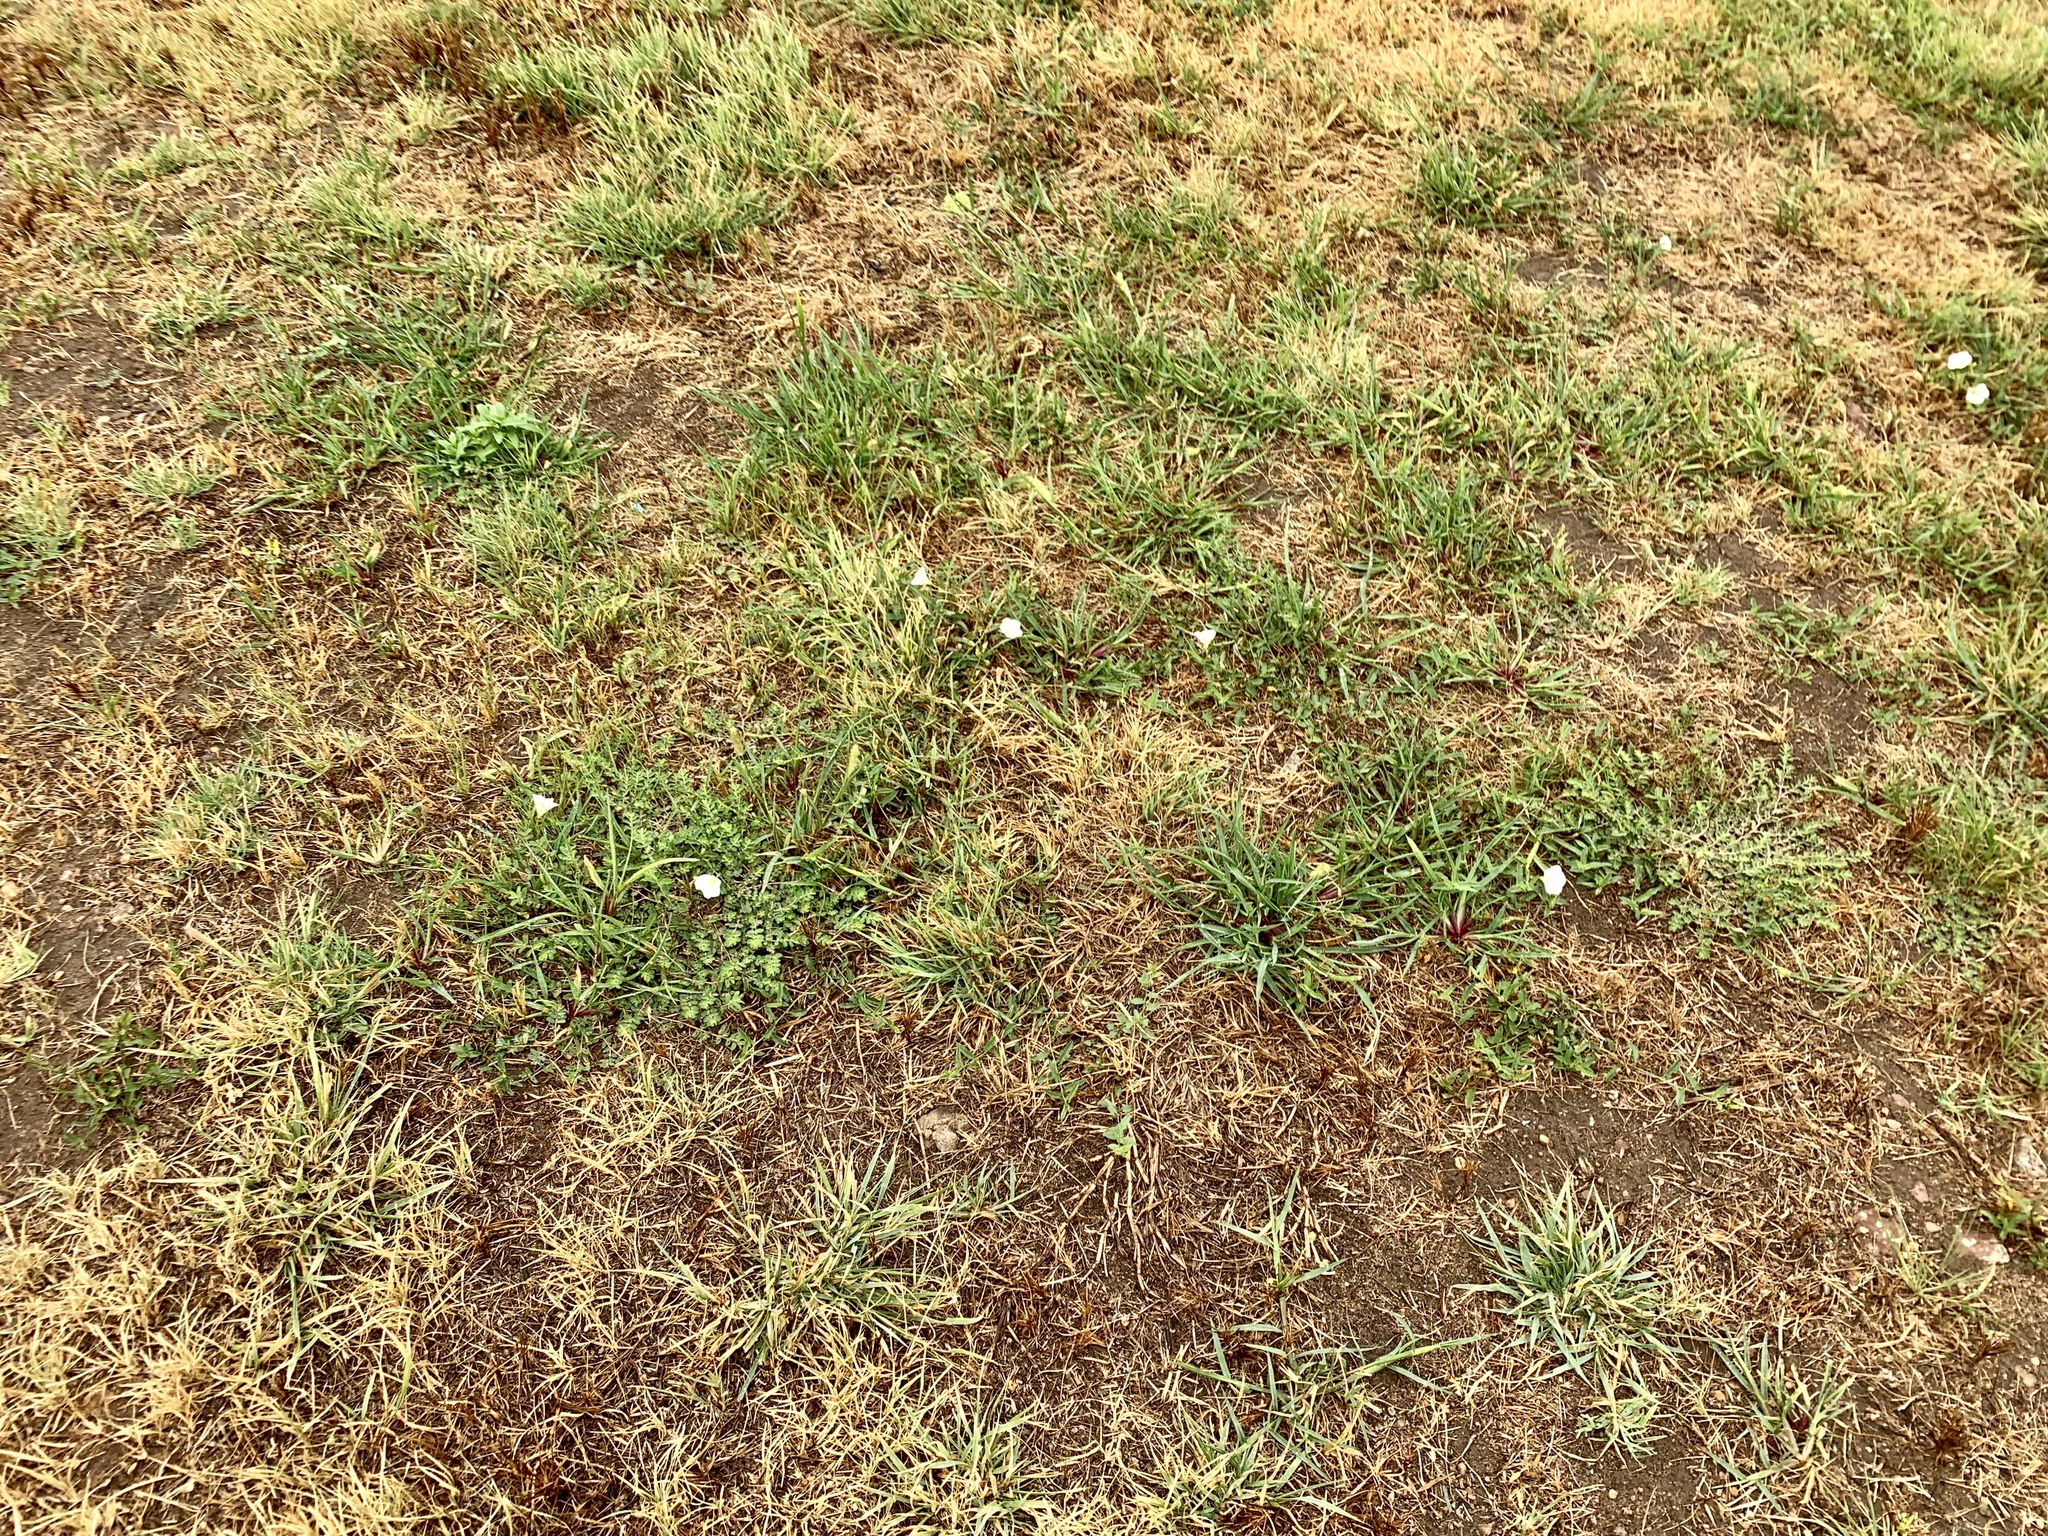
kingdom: Plantae
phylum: Tracheophyta
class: Magnoliopsida
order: Solanales
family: Convolvulaceae
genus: Convolvulus
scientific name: Convolvulus arvensis
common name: Field bindweed
